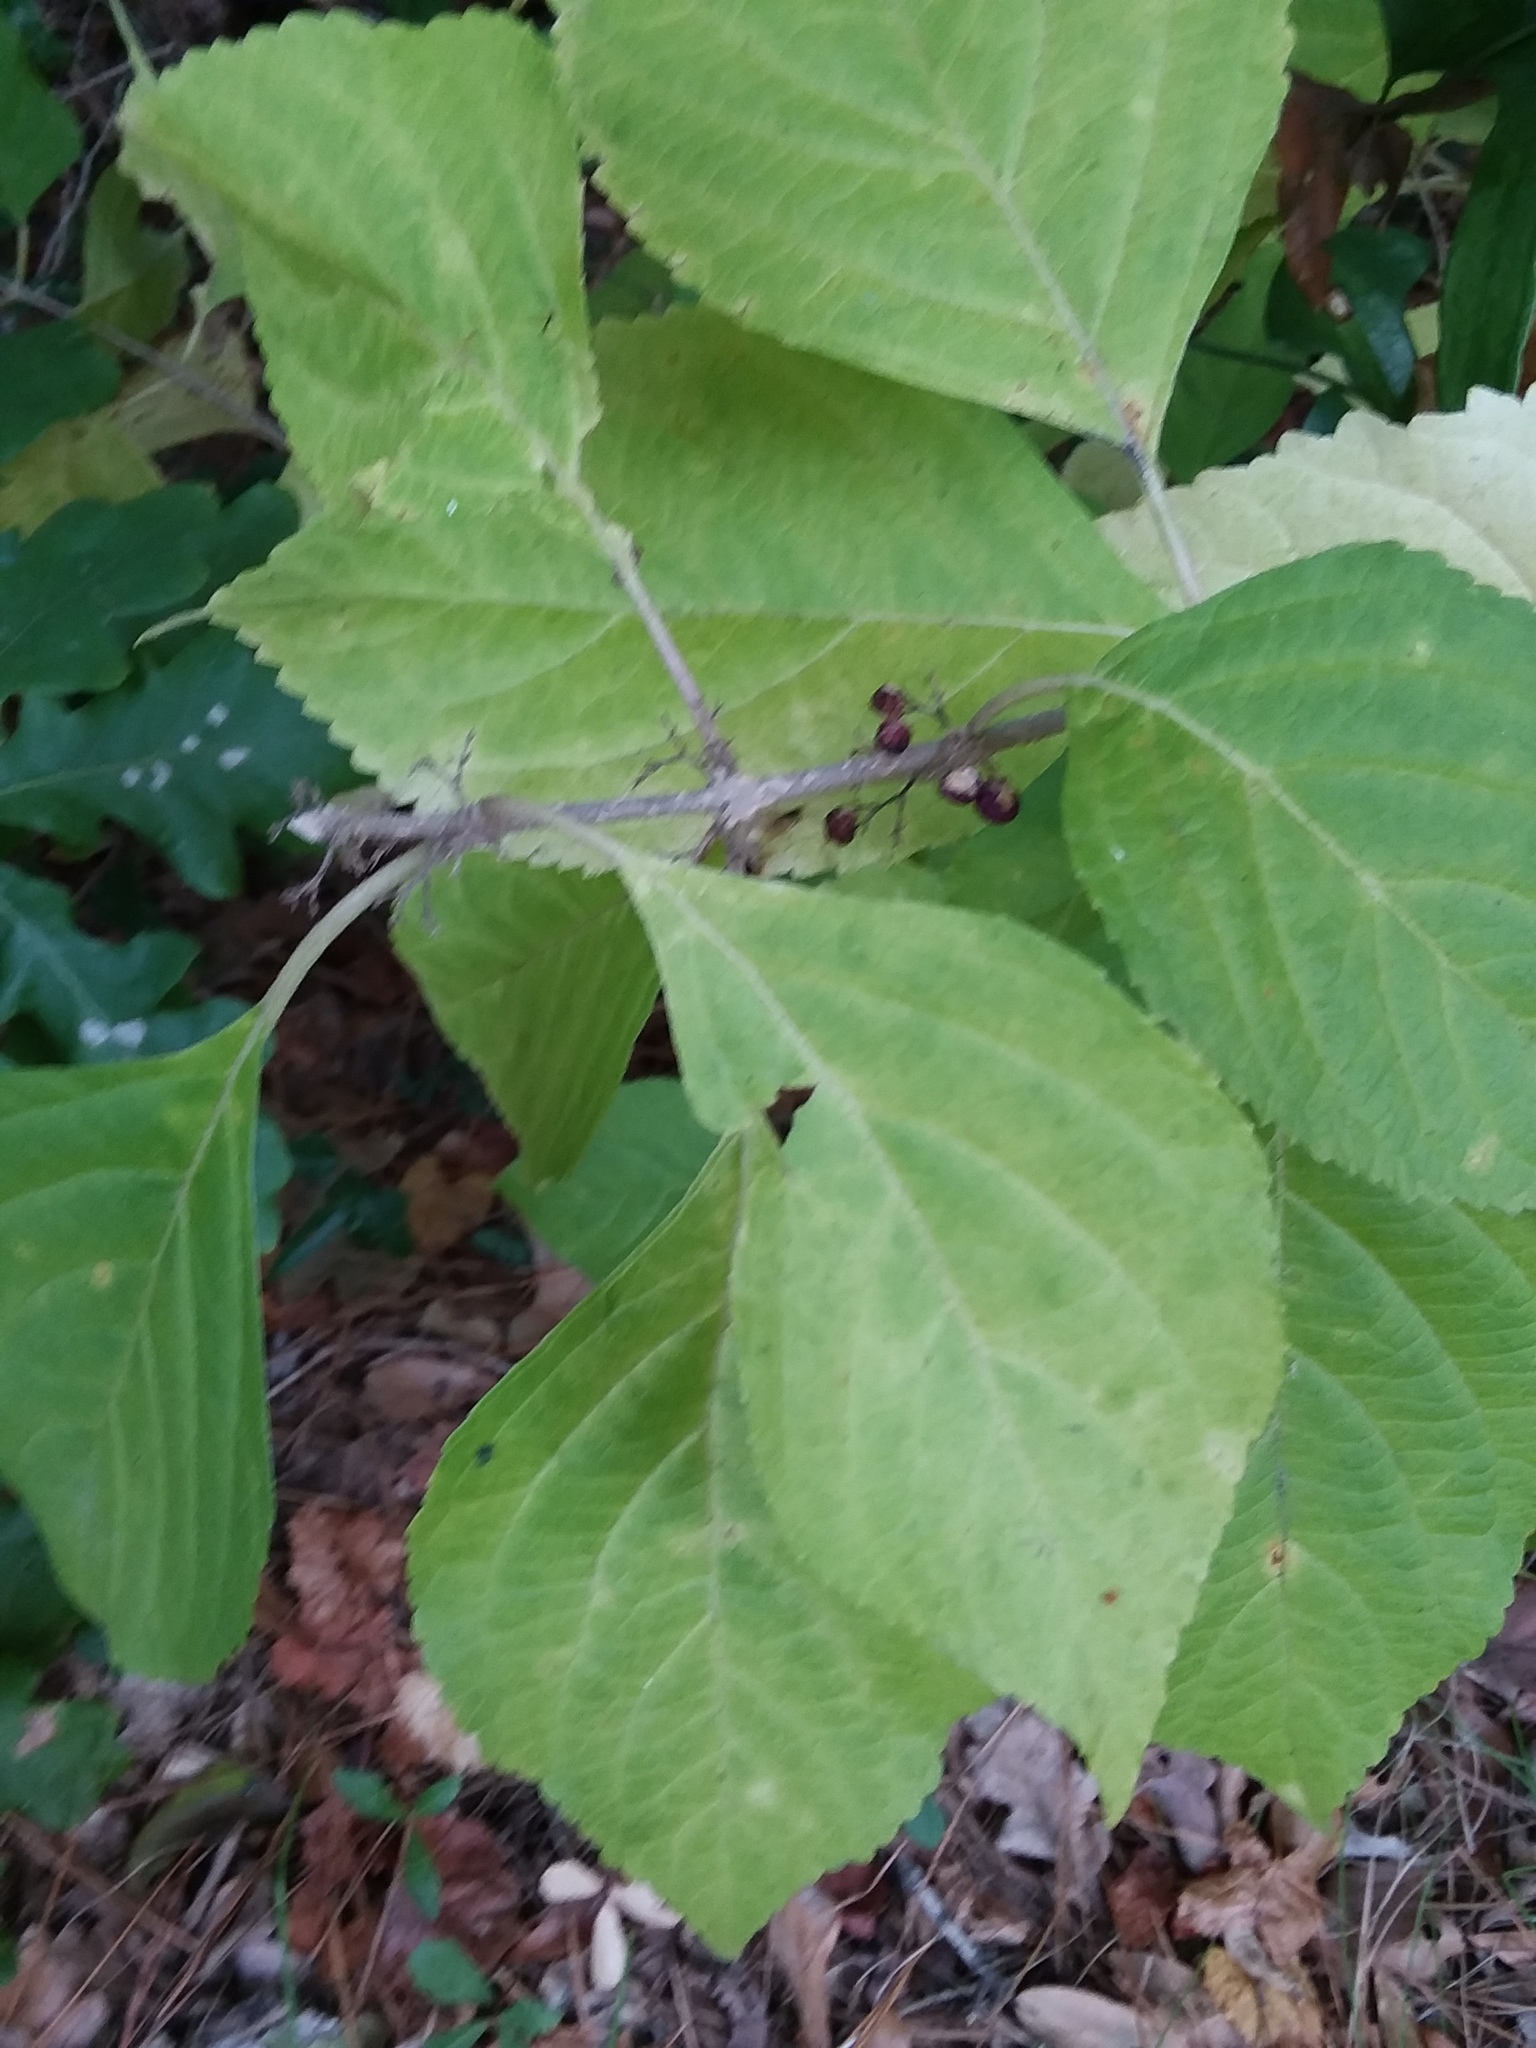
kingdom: Plantae
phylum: Tracheophyta
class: Magnoliopsida
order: Lamiales
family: Lamiaceae
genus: Callicarpa
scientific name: Callicarpa americana
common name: American beautyberry
